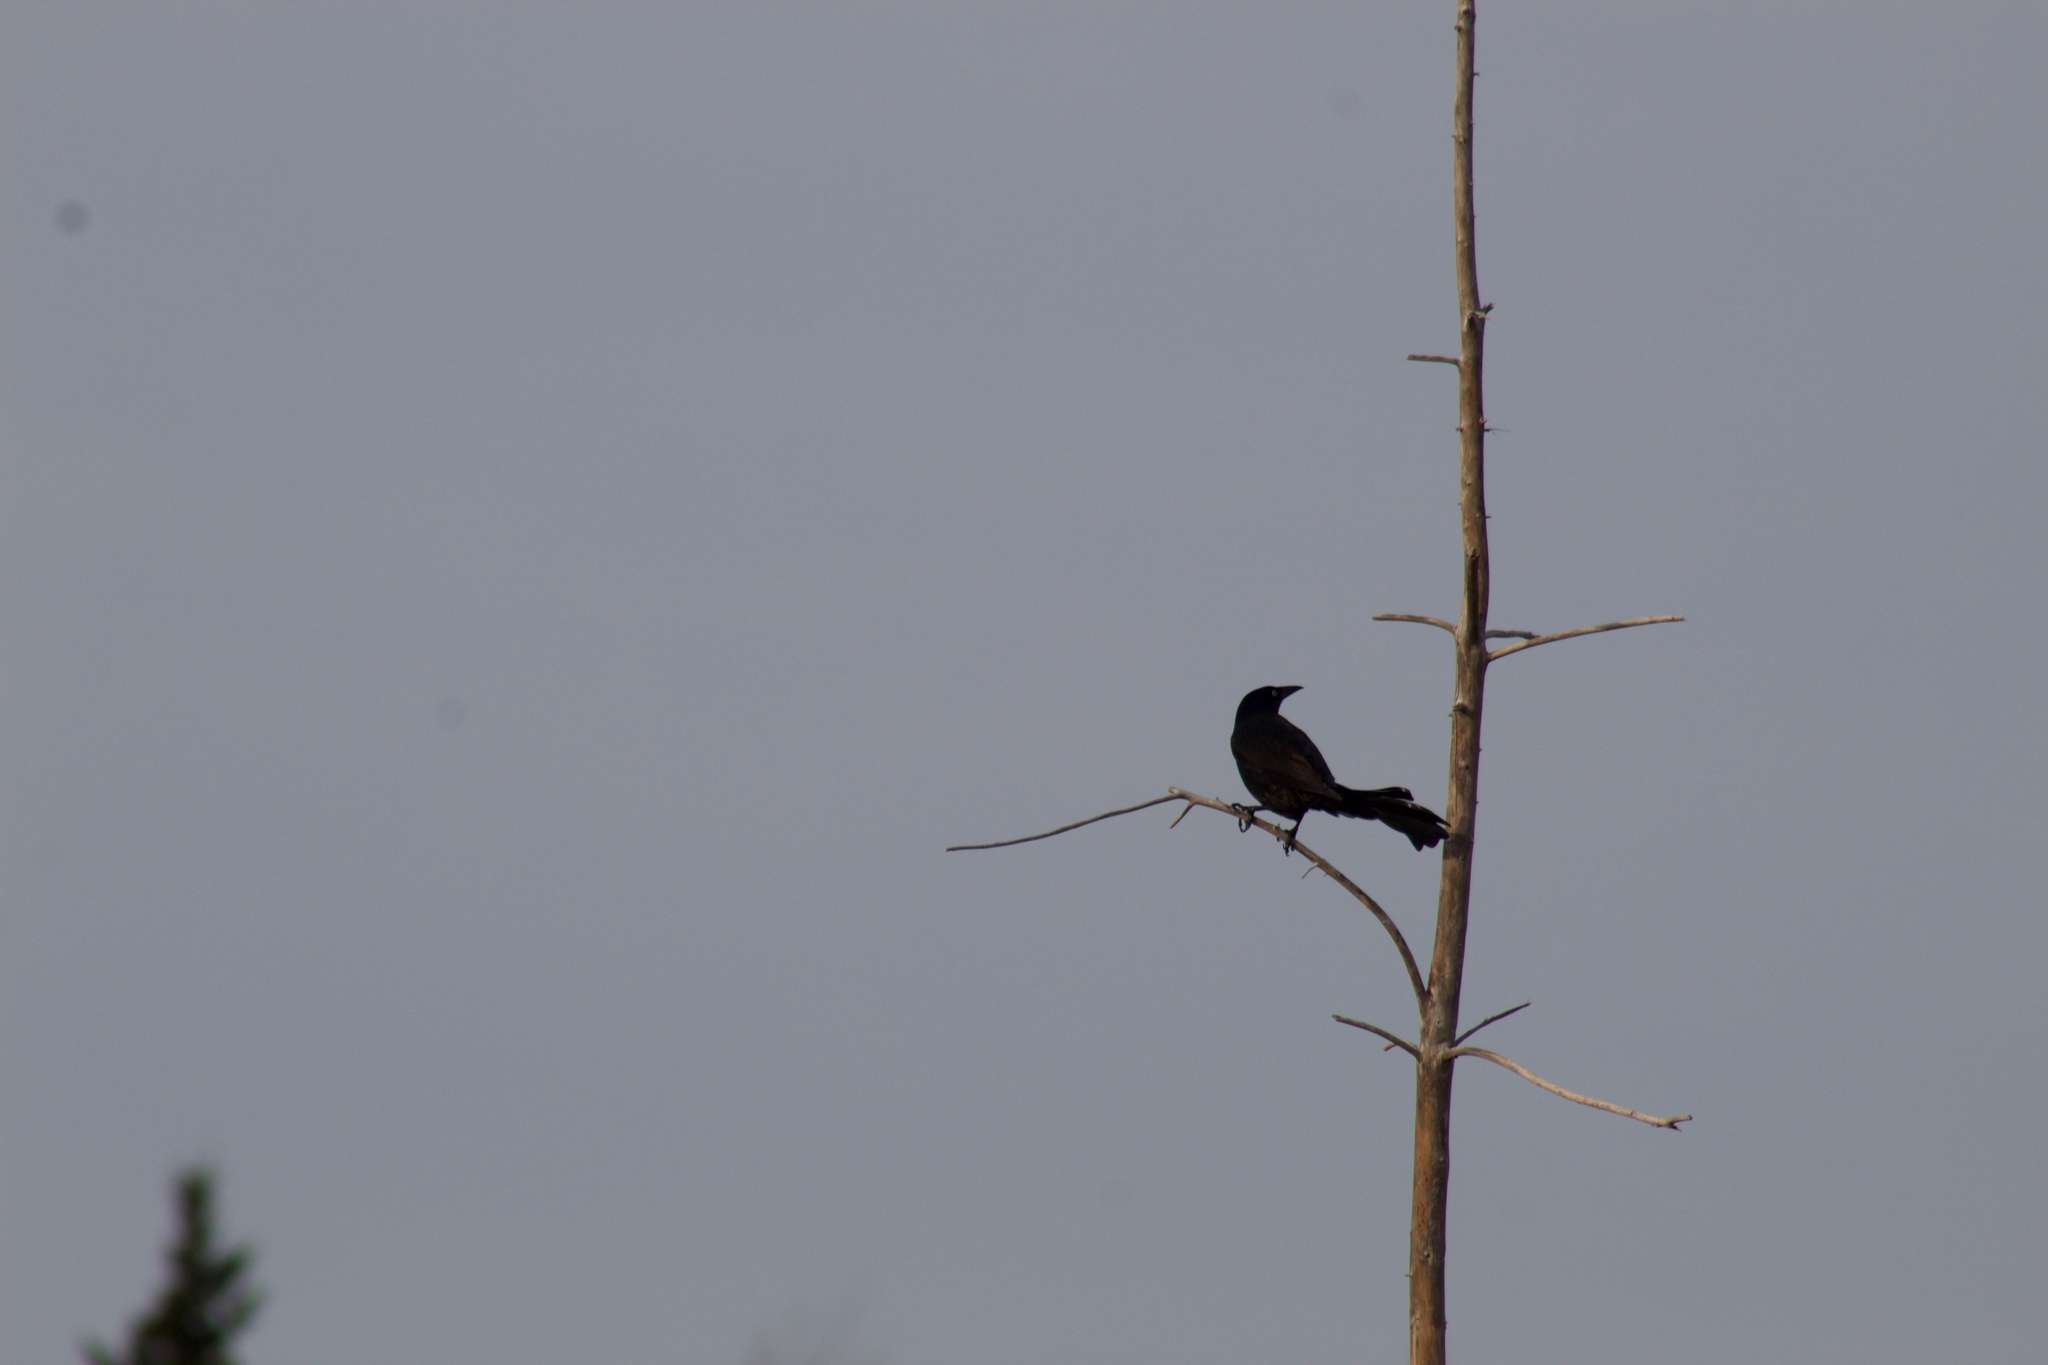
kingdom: Animalia
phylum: Chordata
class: Aves
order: Passeriformes
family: Icteridae
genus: Quiscalus
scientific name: Quiscalus quiscula
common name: Common grackle
